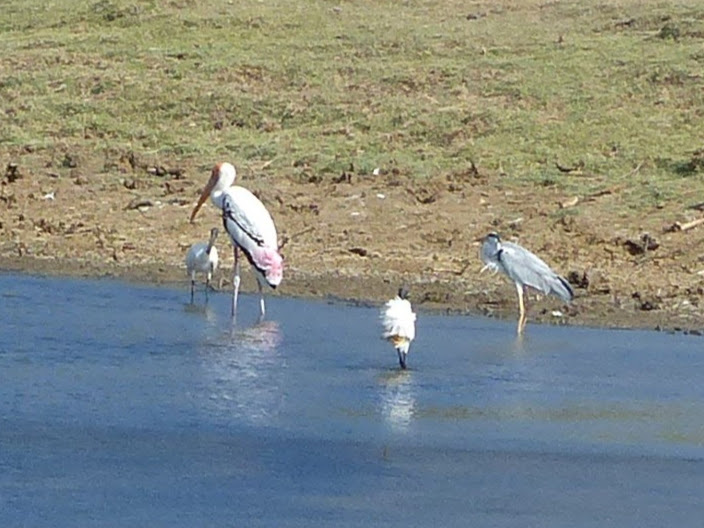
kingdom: Animalia
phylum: Chordata
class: Aves
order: Pelecaniformes
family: Ardeidae
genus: Ardea
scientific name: Ardea cinerea
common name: Grey heron
